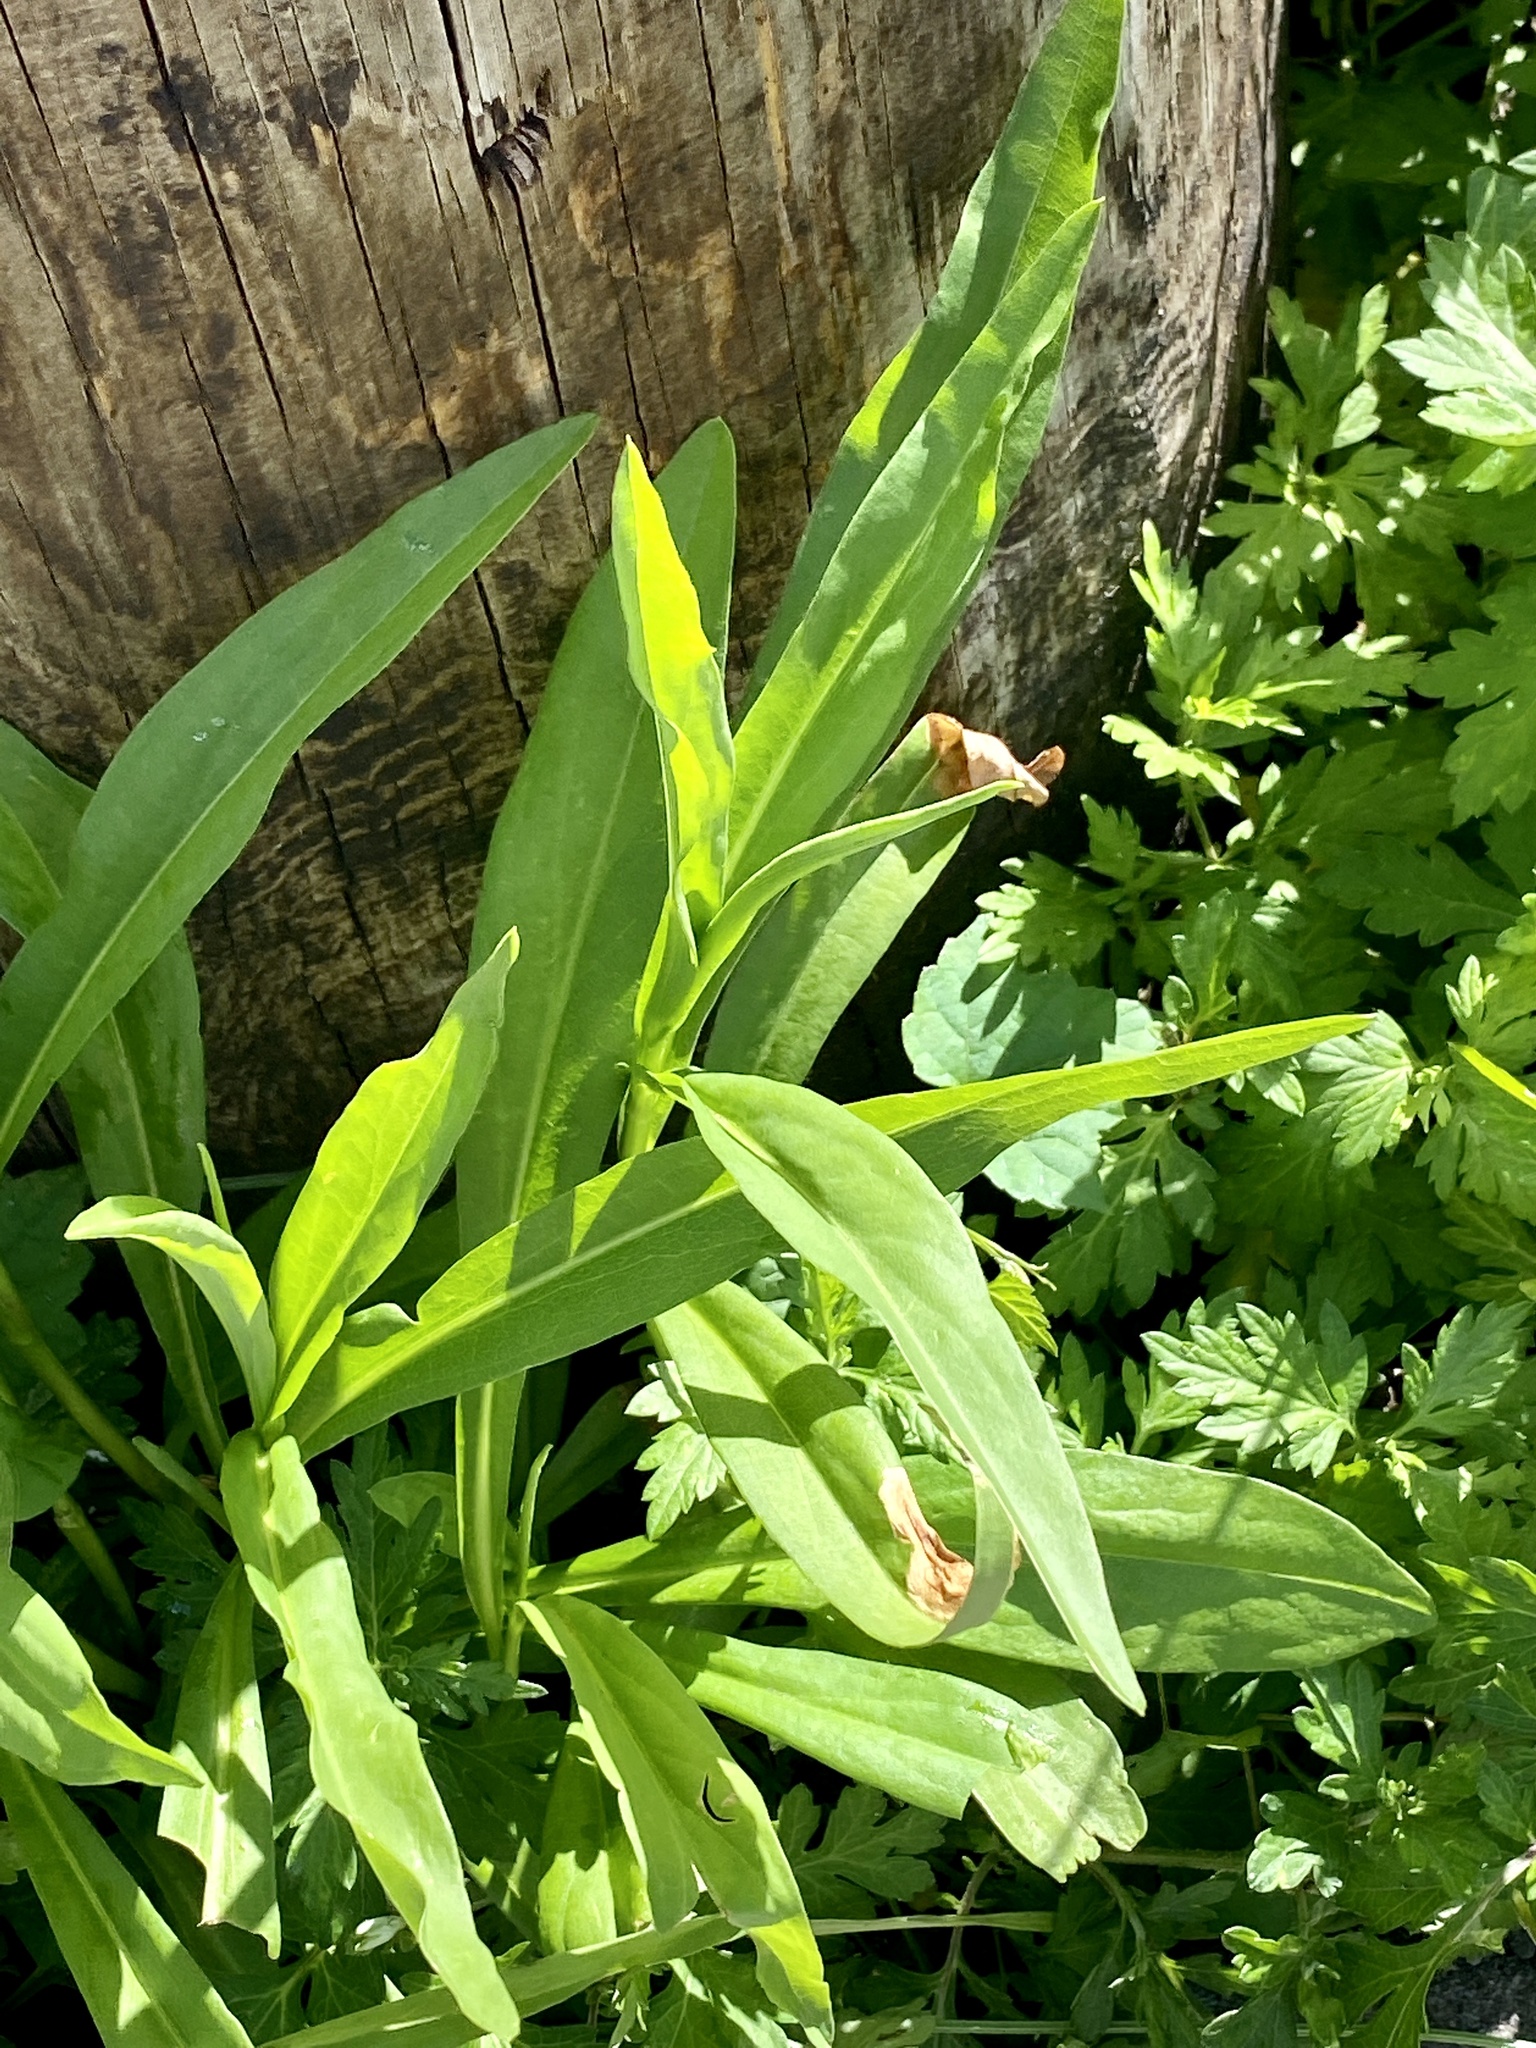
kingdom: Plantae
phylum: Tracheophyta
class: Magnoliopsida
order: Asterales
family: Asteraceae
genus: Solidago
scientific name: Solidago sempervirens
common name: Salt-marsh goldenrod
